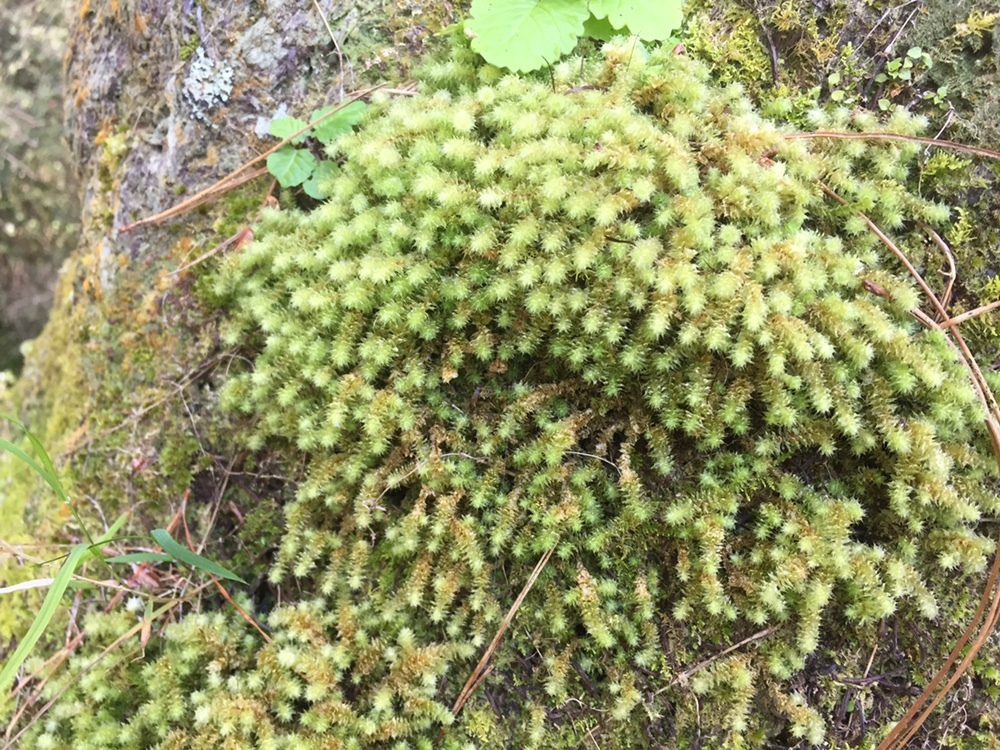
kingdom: Plantae
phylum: Bryophyta
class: Bryopsida
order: Ptychomniales
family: Ptychomniaceae
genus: Ptychomnion
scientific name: Ptychomnion aciculare
